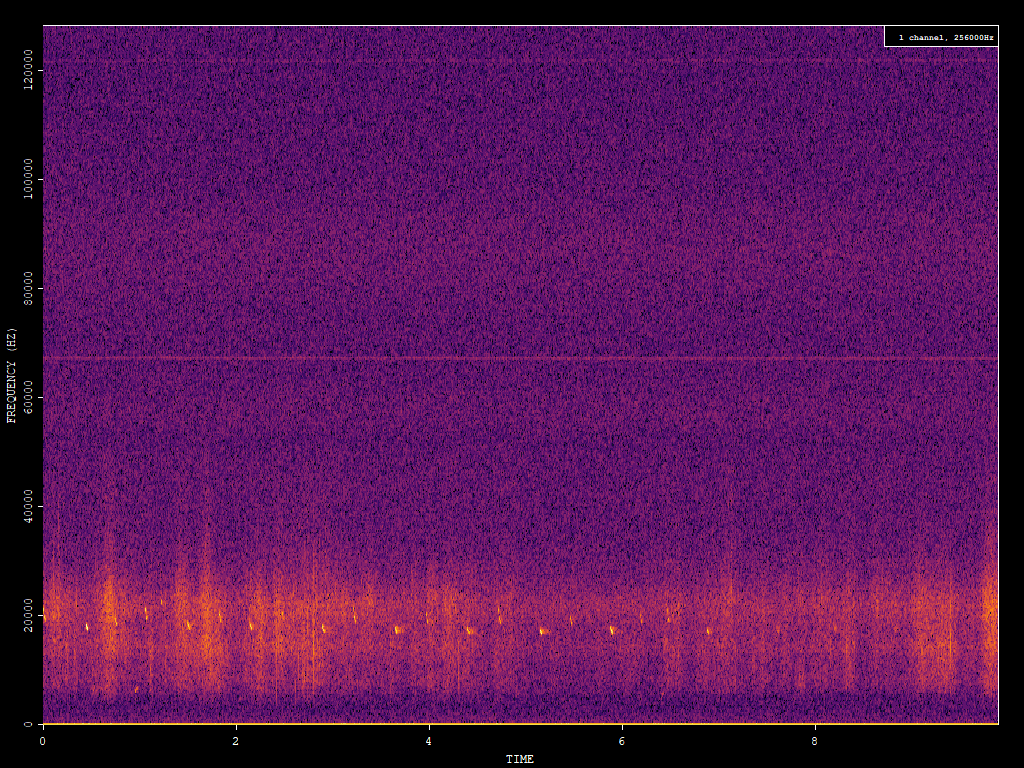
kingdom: Animalia
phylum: Chordata
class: Mammalia
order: Chiroptera
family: Vespertilionidae
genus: Nyctalus
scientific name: Nyctalus noctula
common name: Noctule
